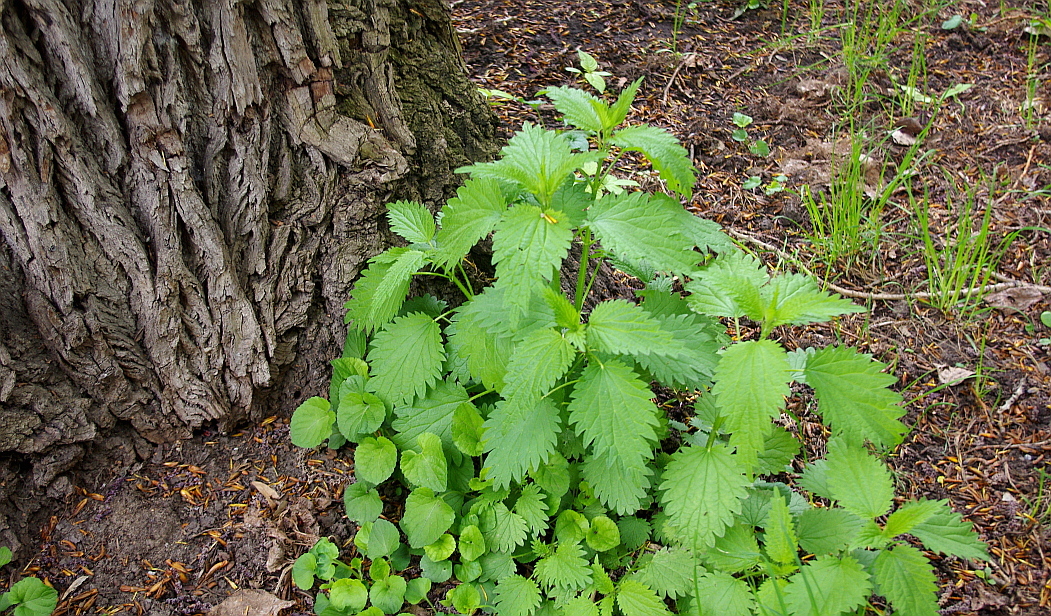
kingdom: Plantae
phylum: Tracheophyta
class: Magnoliopsida
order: Rosales
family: Urticaceae
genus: Urtica
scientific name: Urtica dioica
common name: Common nettle
